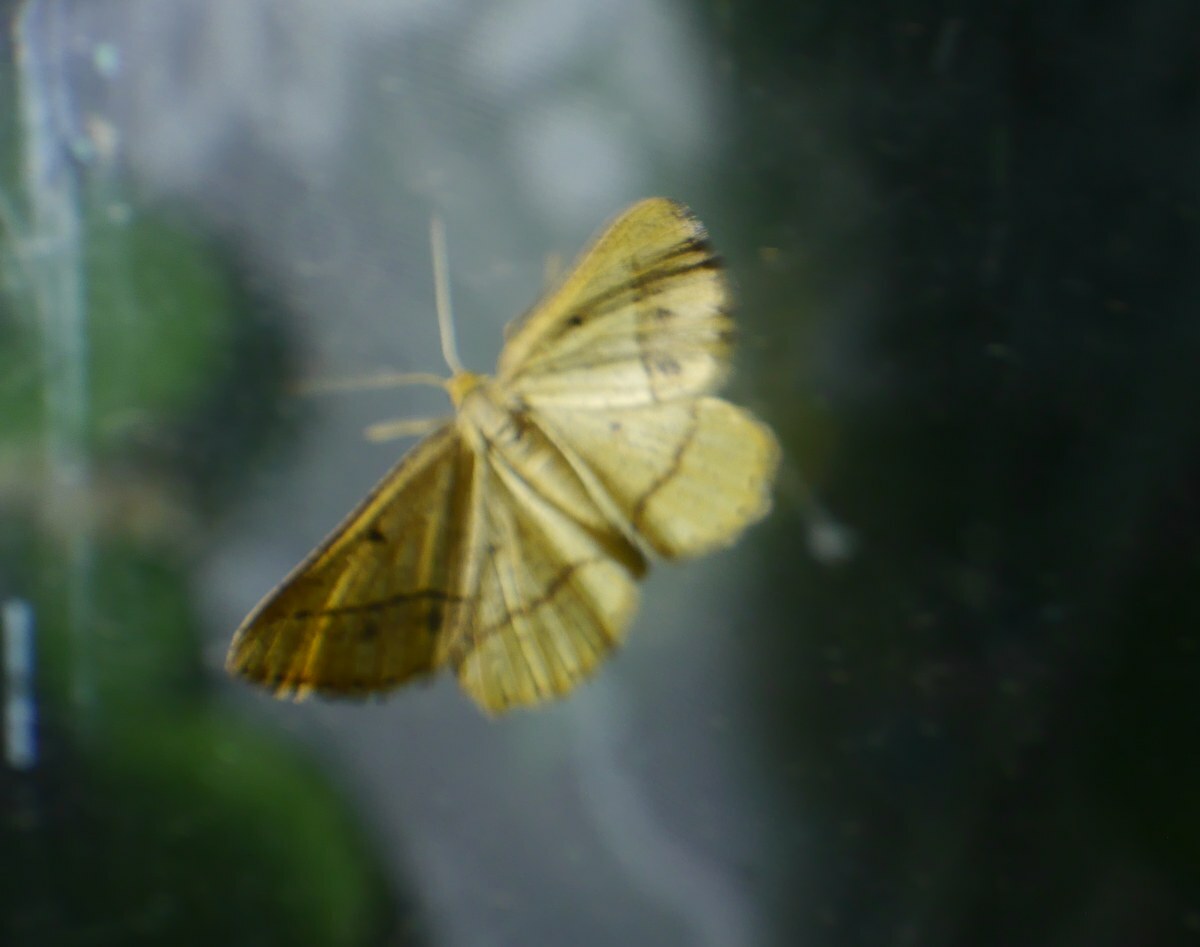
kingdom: Animalia
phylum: Arthropoda
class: Insecta
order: Lepidoptera
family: Geometridae
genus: Tephrina
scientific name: Tephrina arenacearia
